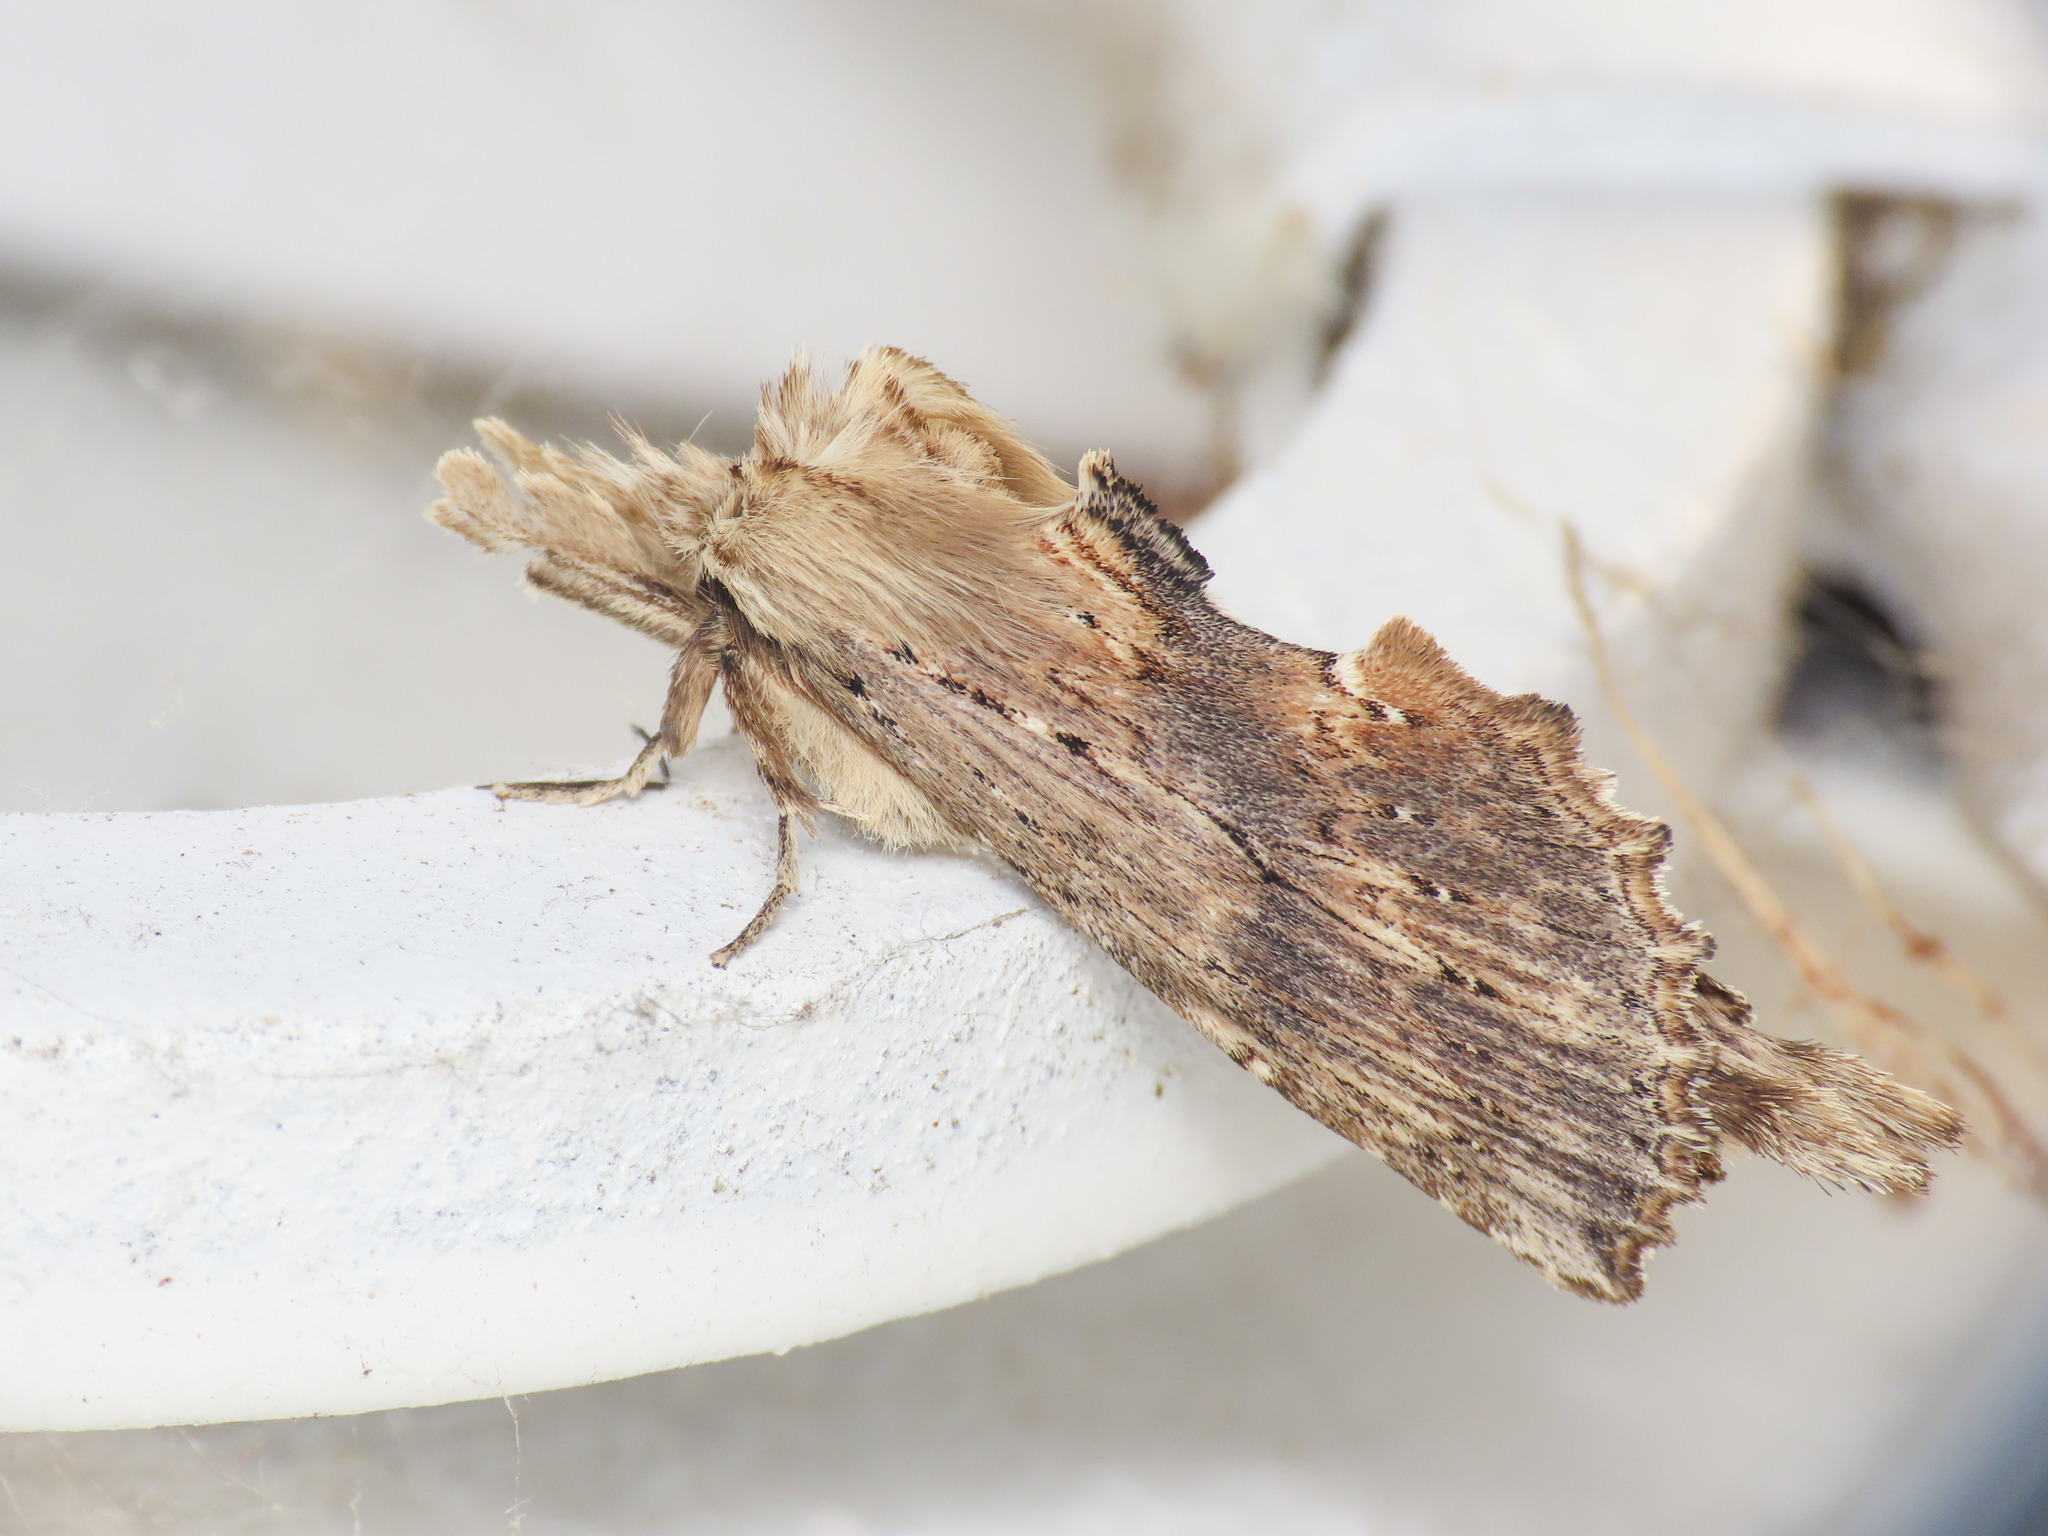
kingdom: Animalia
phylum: Arthropoda
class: Insecta
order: Lepidoptera
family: Notodontidae
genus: Pterostoma
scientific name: Pterostoma palpina
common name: Pale prominent
